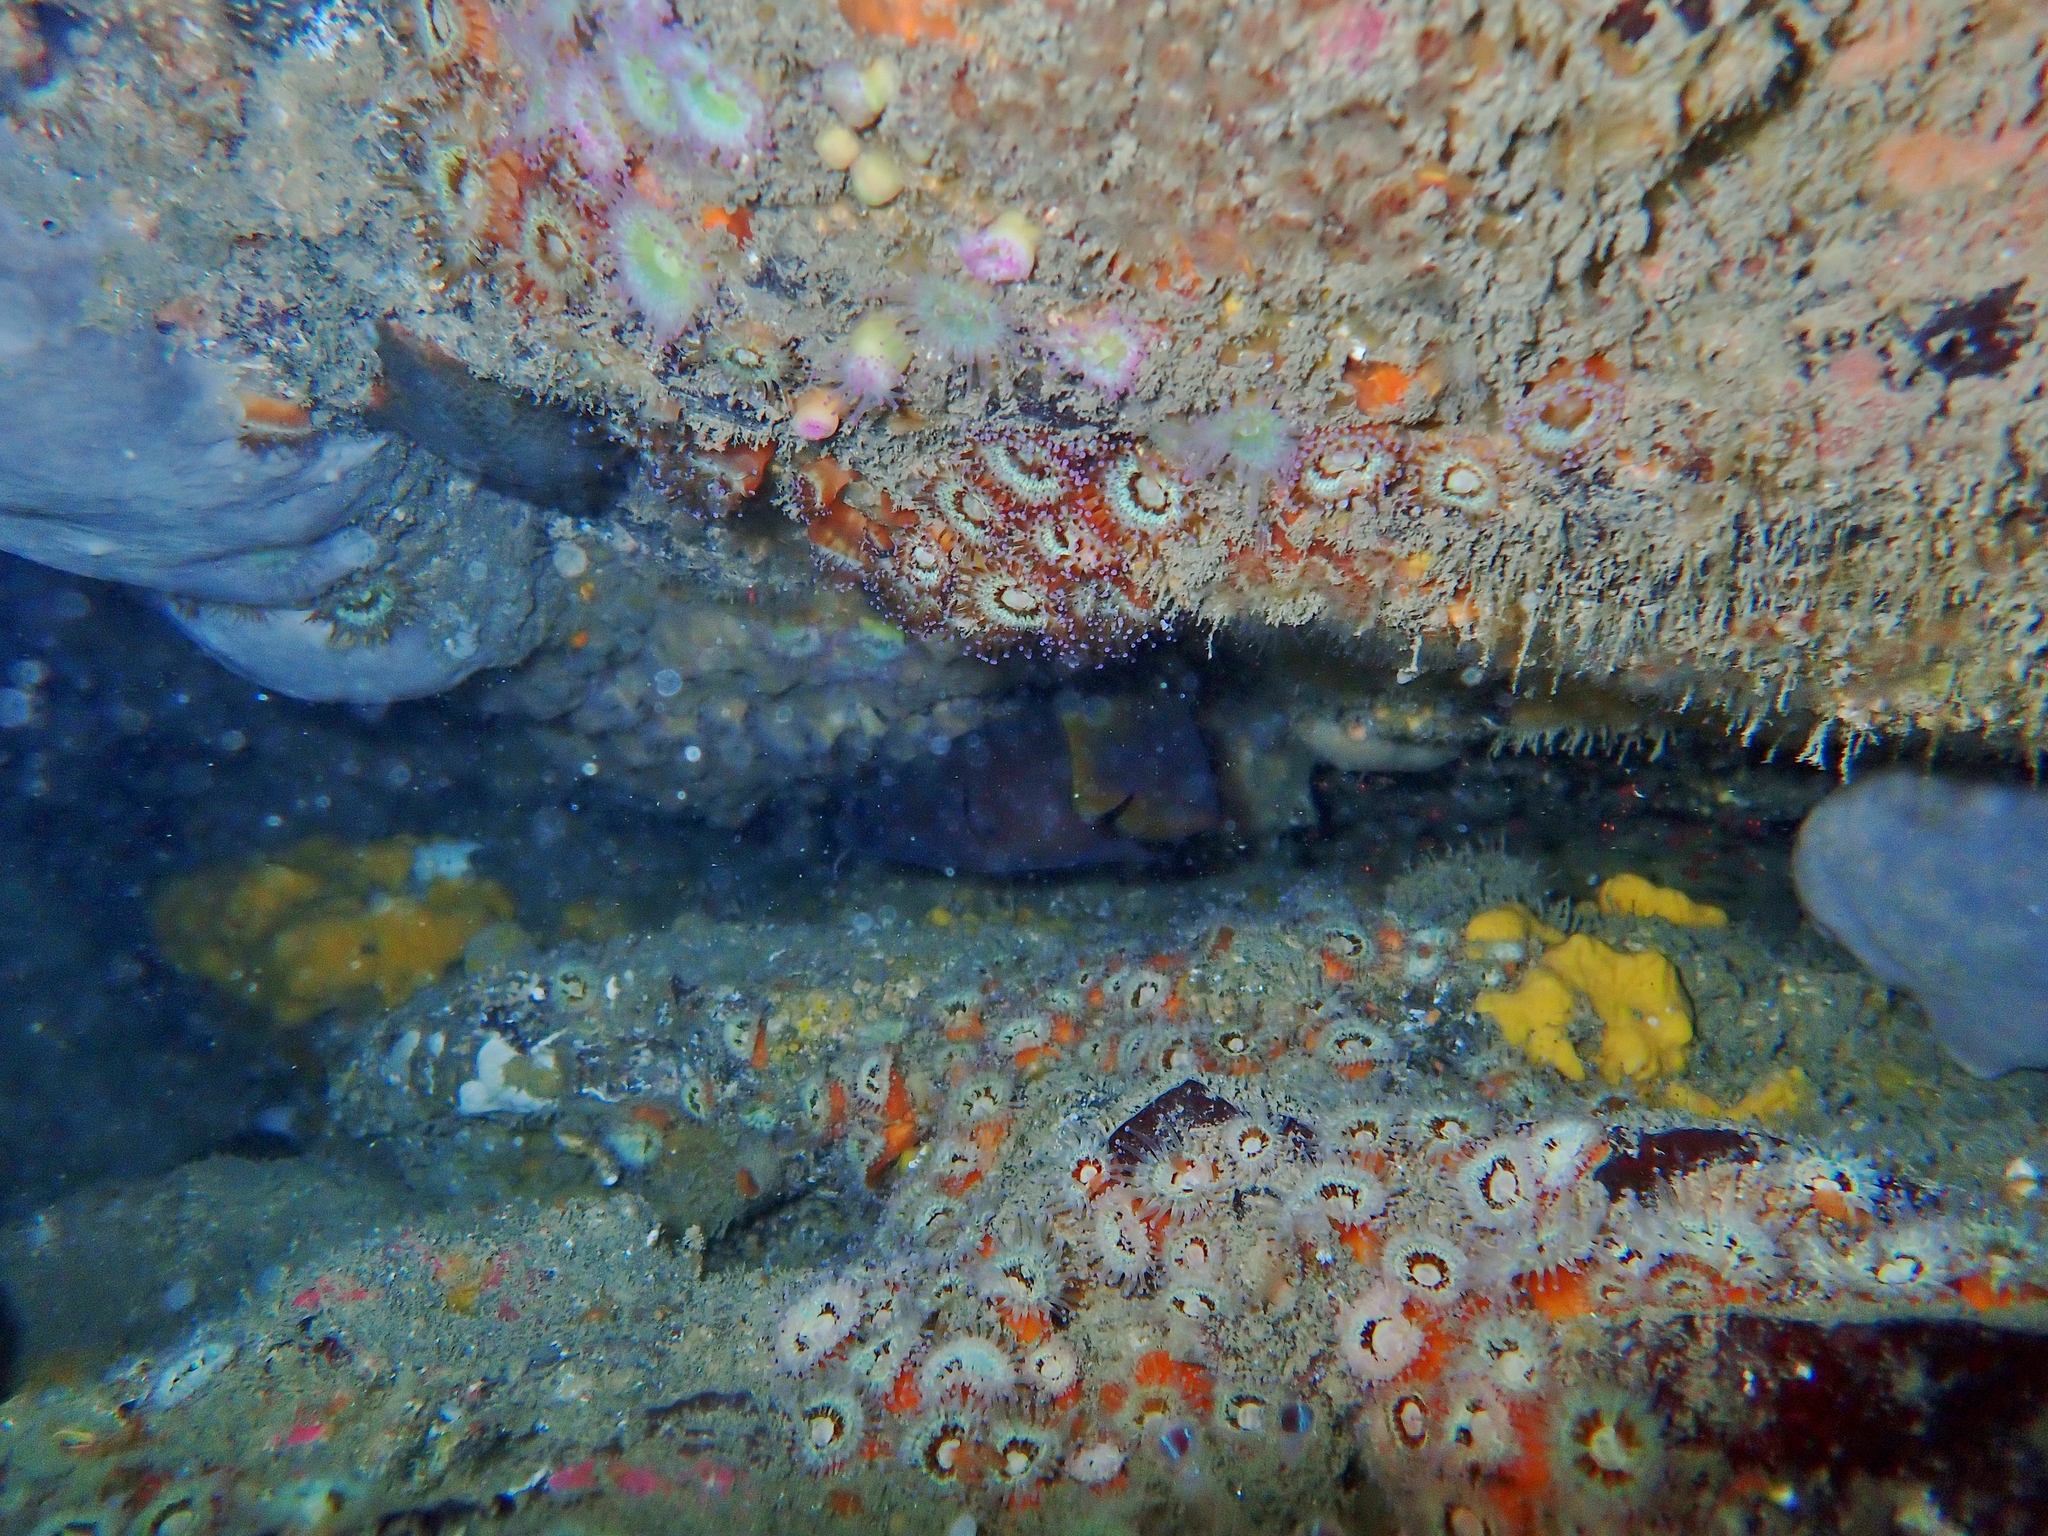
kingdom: Animalia
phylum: Chordata
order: Gadiformes
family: Moridae
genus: Lotella
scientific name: Lotella rhacina
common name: Rock cod
